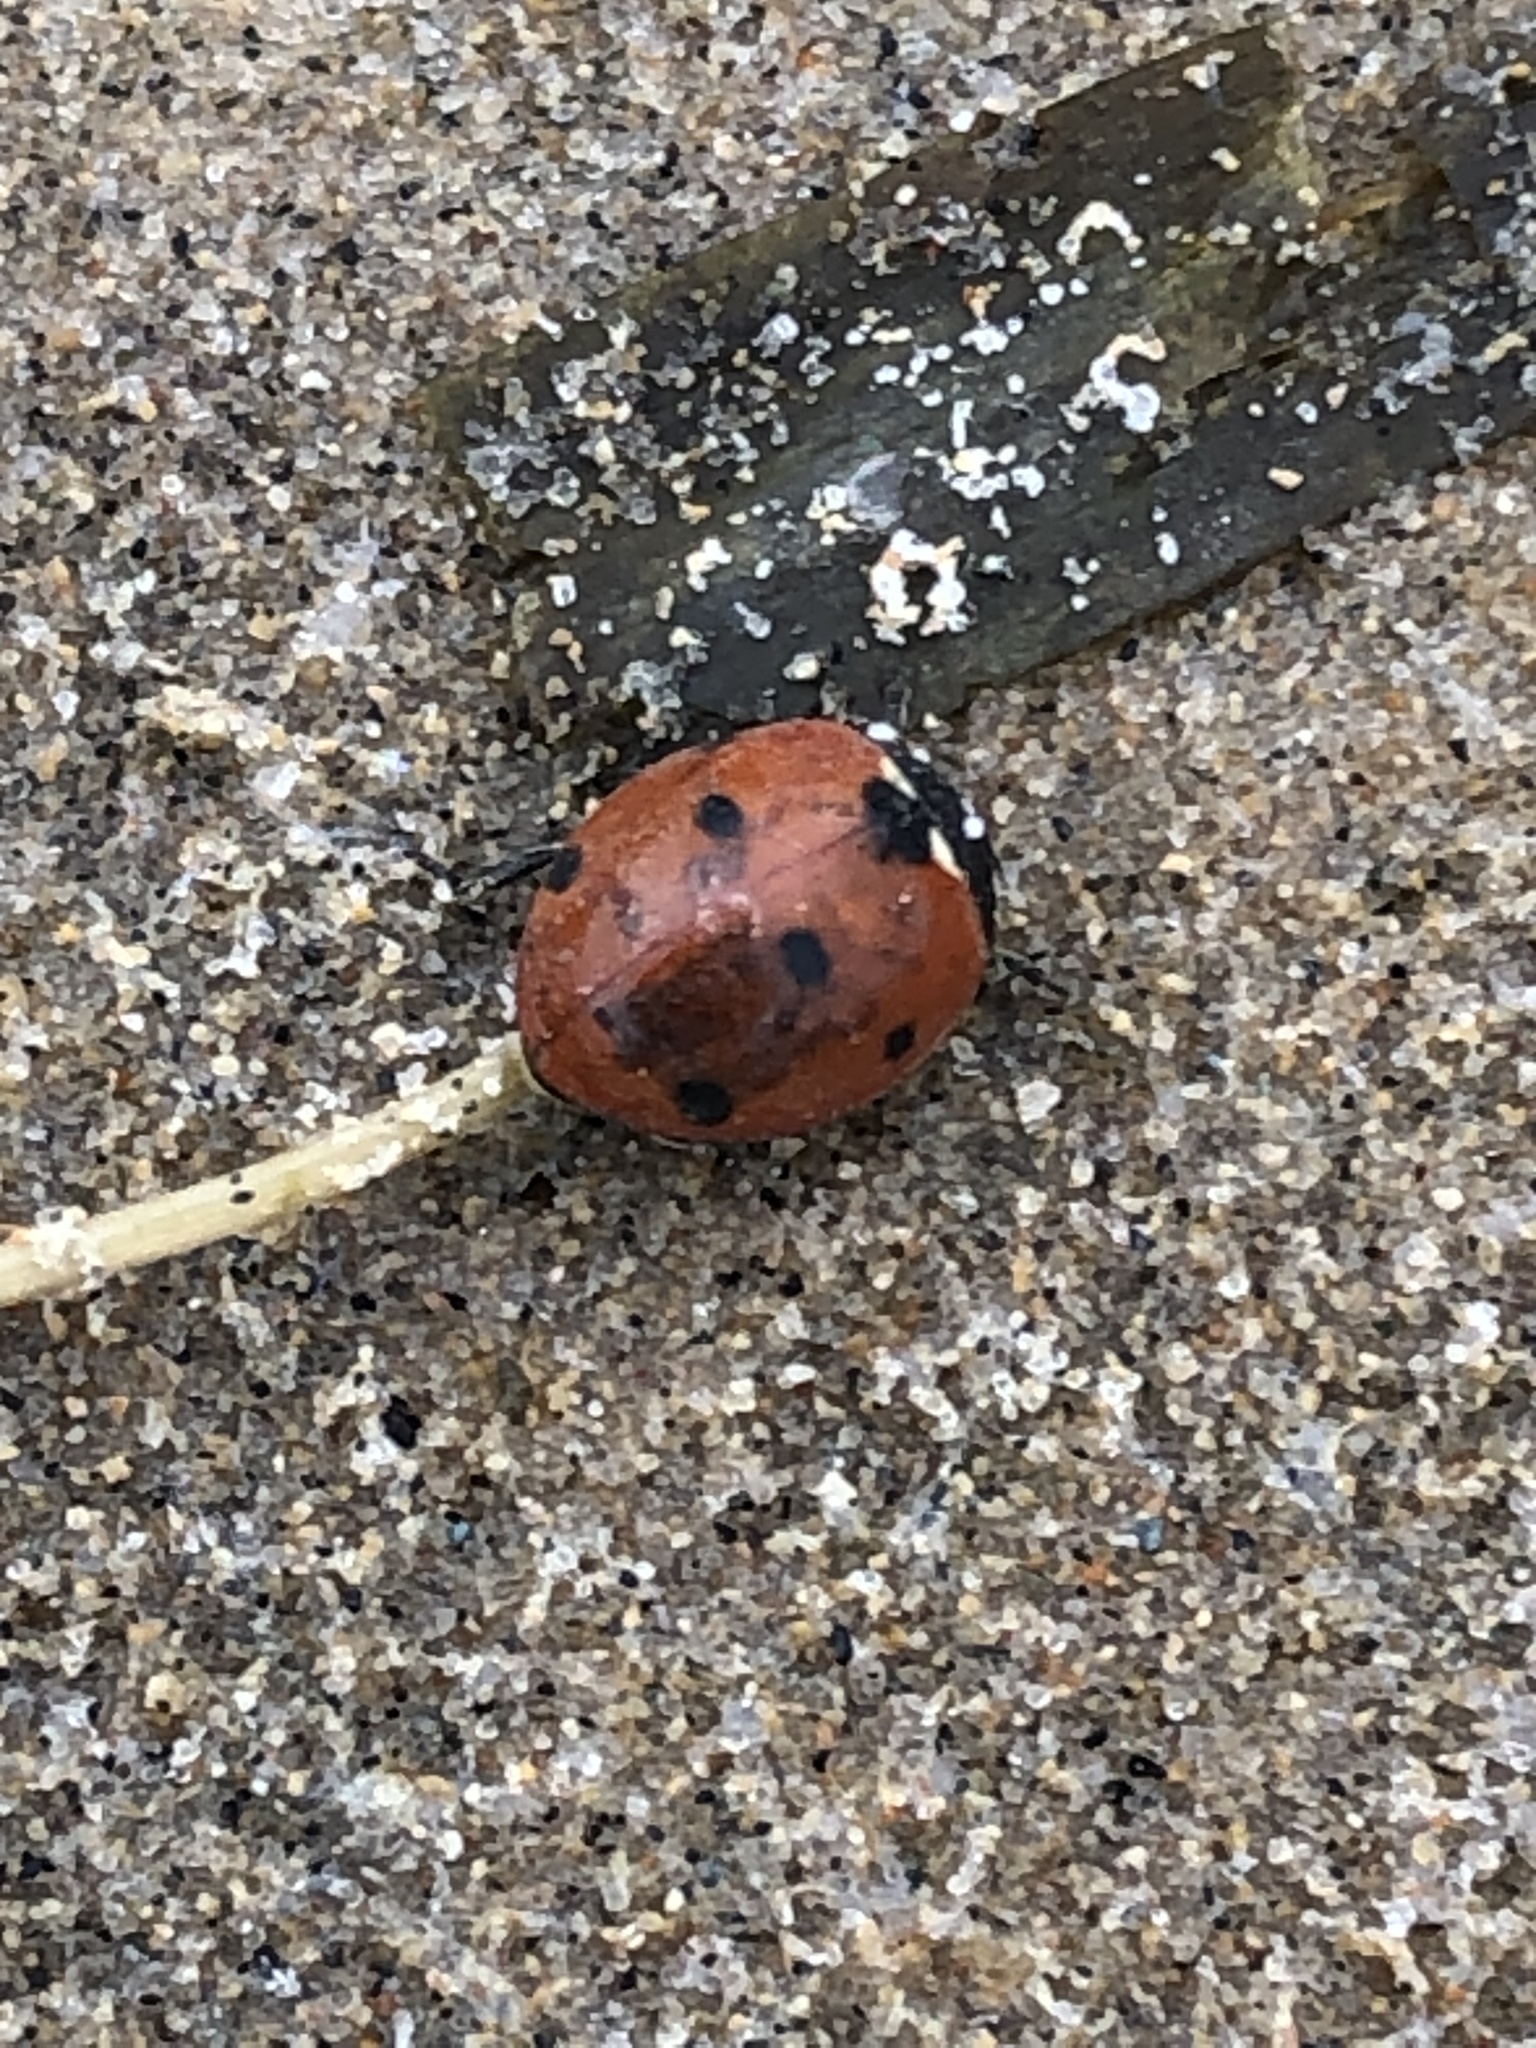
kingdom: Animalia
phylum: Arthropoda
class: Insecta
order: Coleoptera
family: Coccinellidae
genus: Coccinella
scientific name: Coccinella septempunctata
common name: Sevenspotted lady beetle
